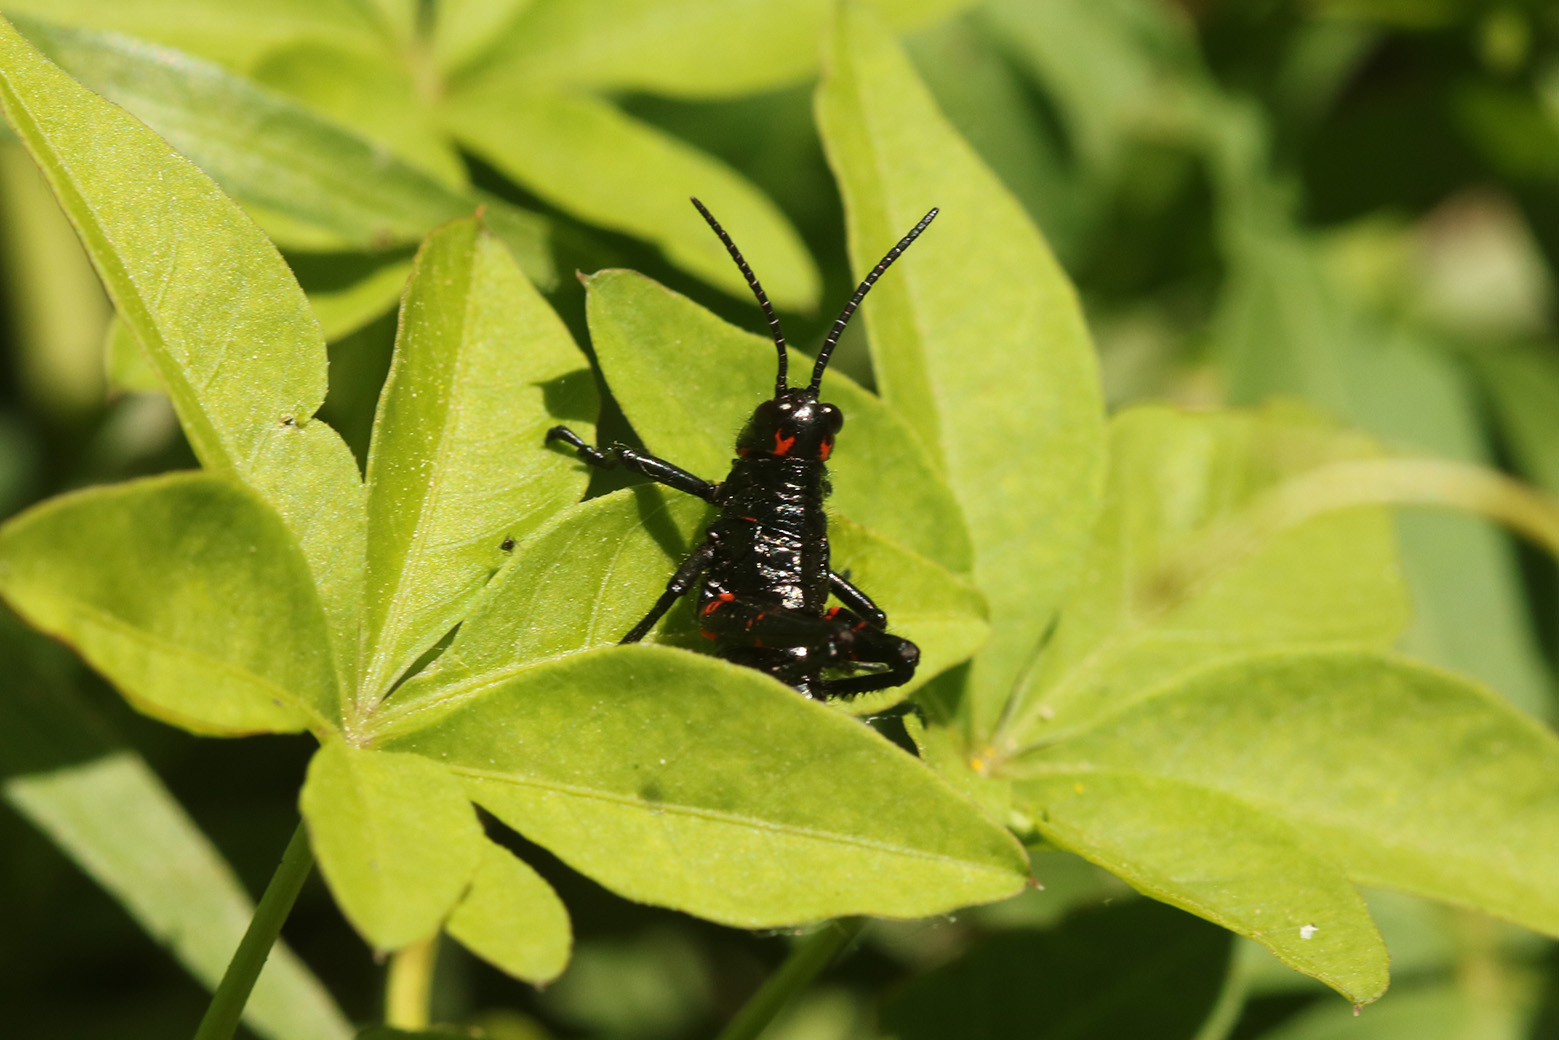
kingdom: Animalia
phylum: Arthropoda
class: Insecta
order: Orthoptera
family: Romaleidae
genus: Chromacris
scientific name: Chromacris speciosa
